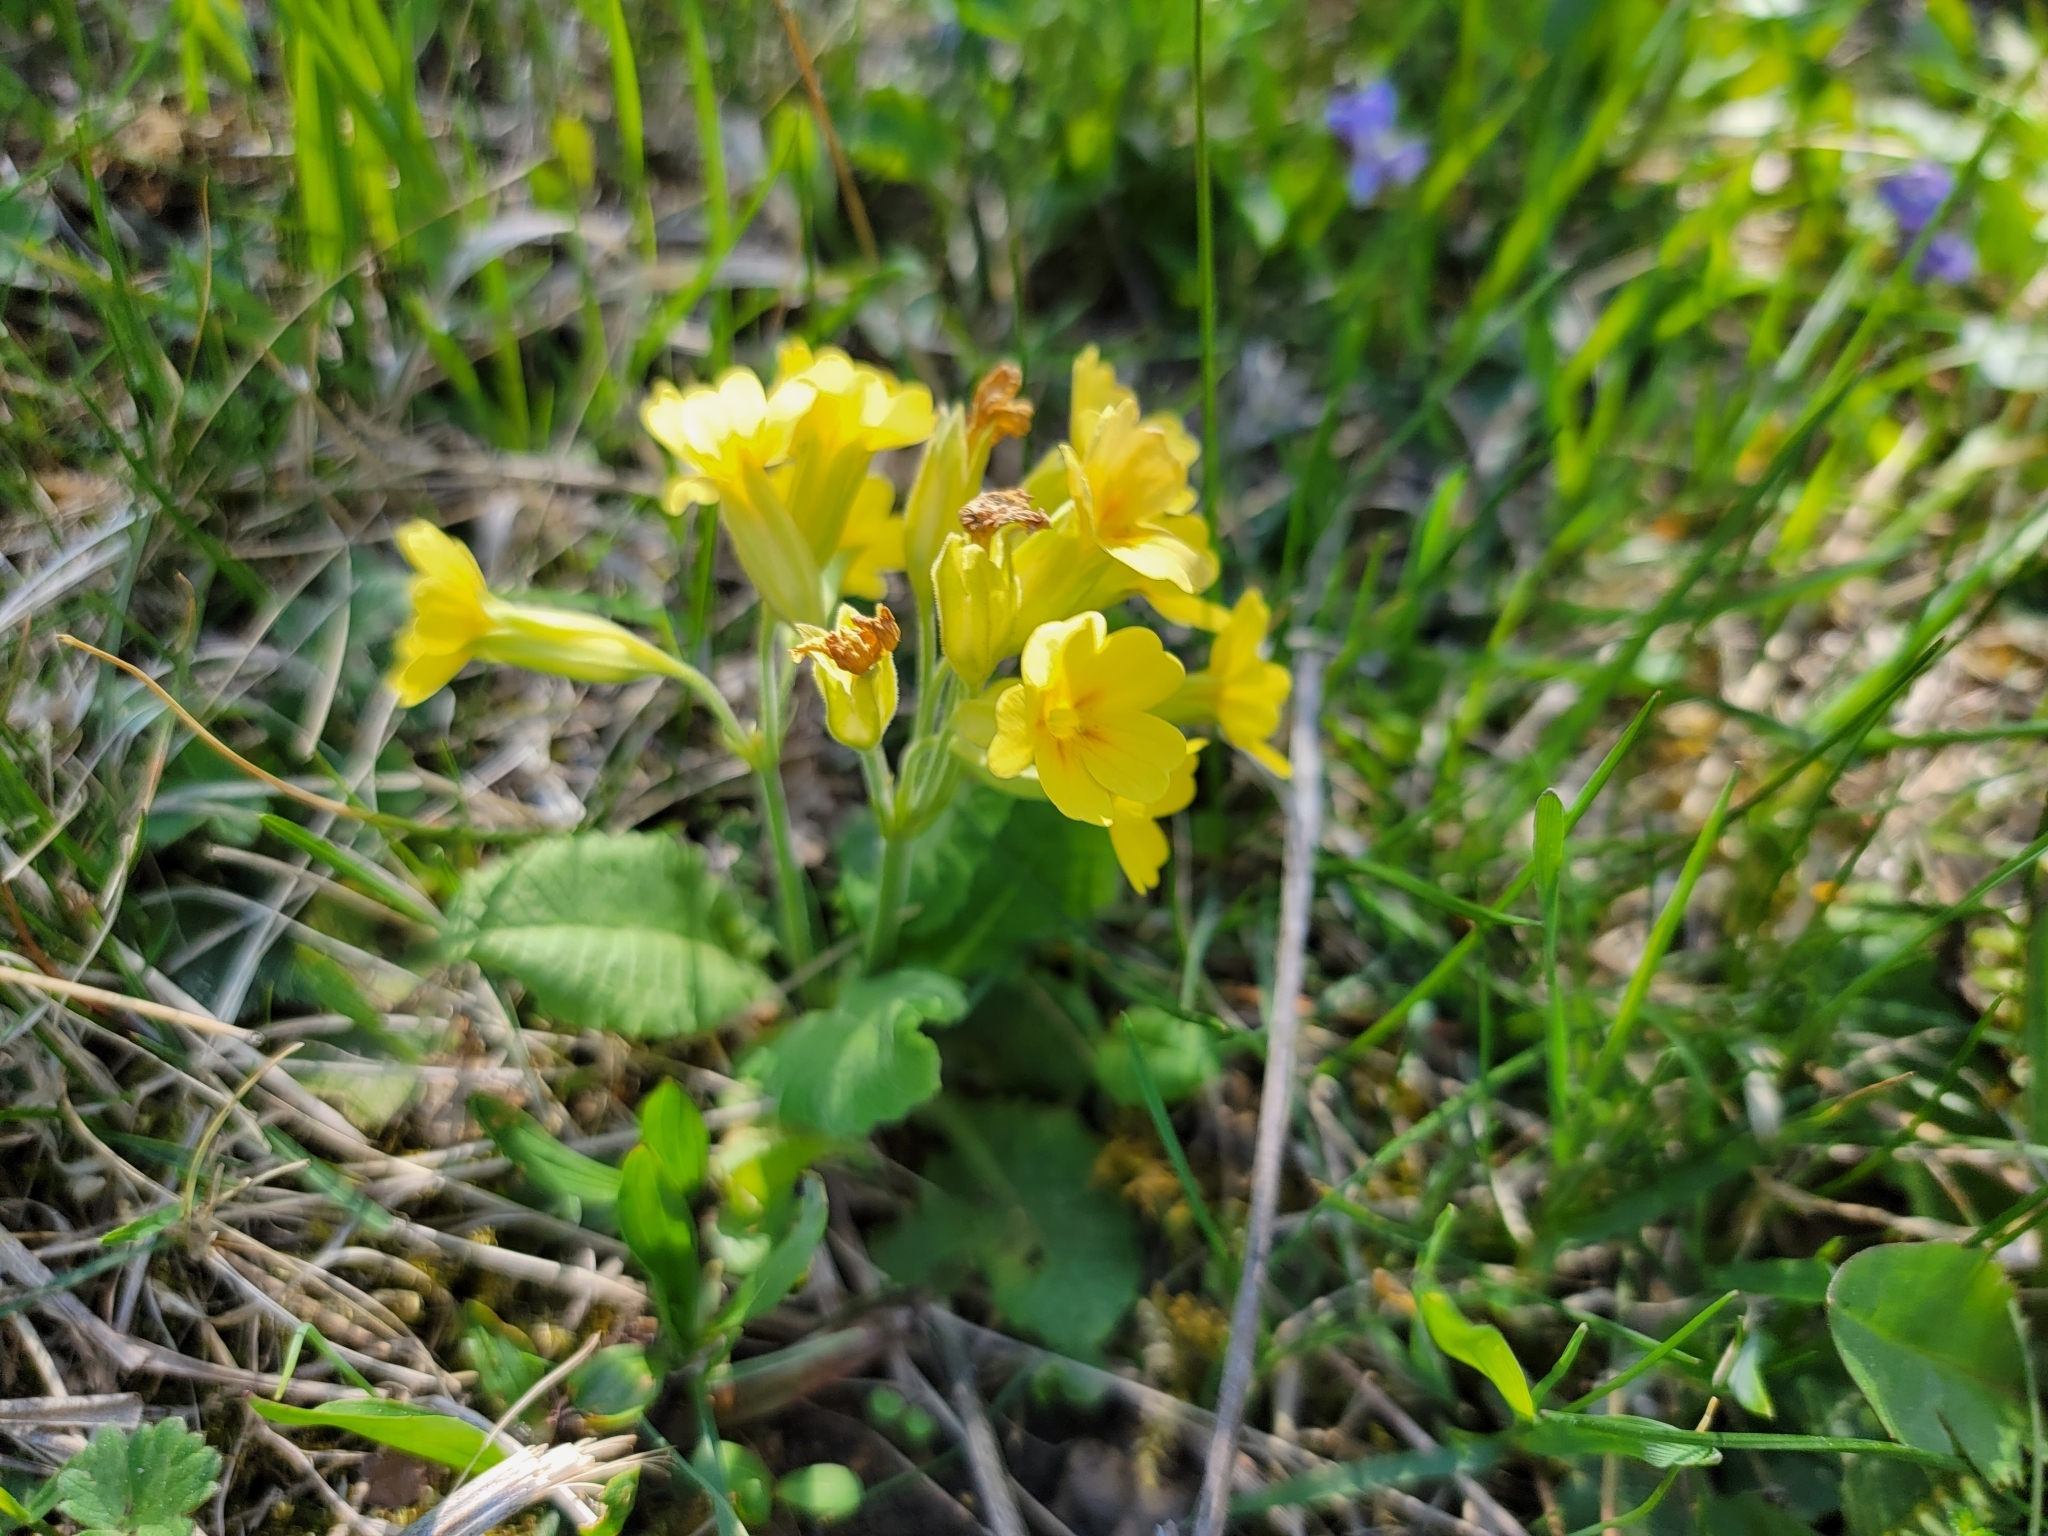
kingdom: Plantae
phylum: Tracheophyta
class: Magnoliopsida
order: Ericales
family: Primulaceae
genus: Primula
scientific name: Primula polyantha
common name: False oxlip
